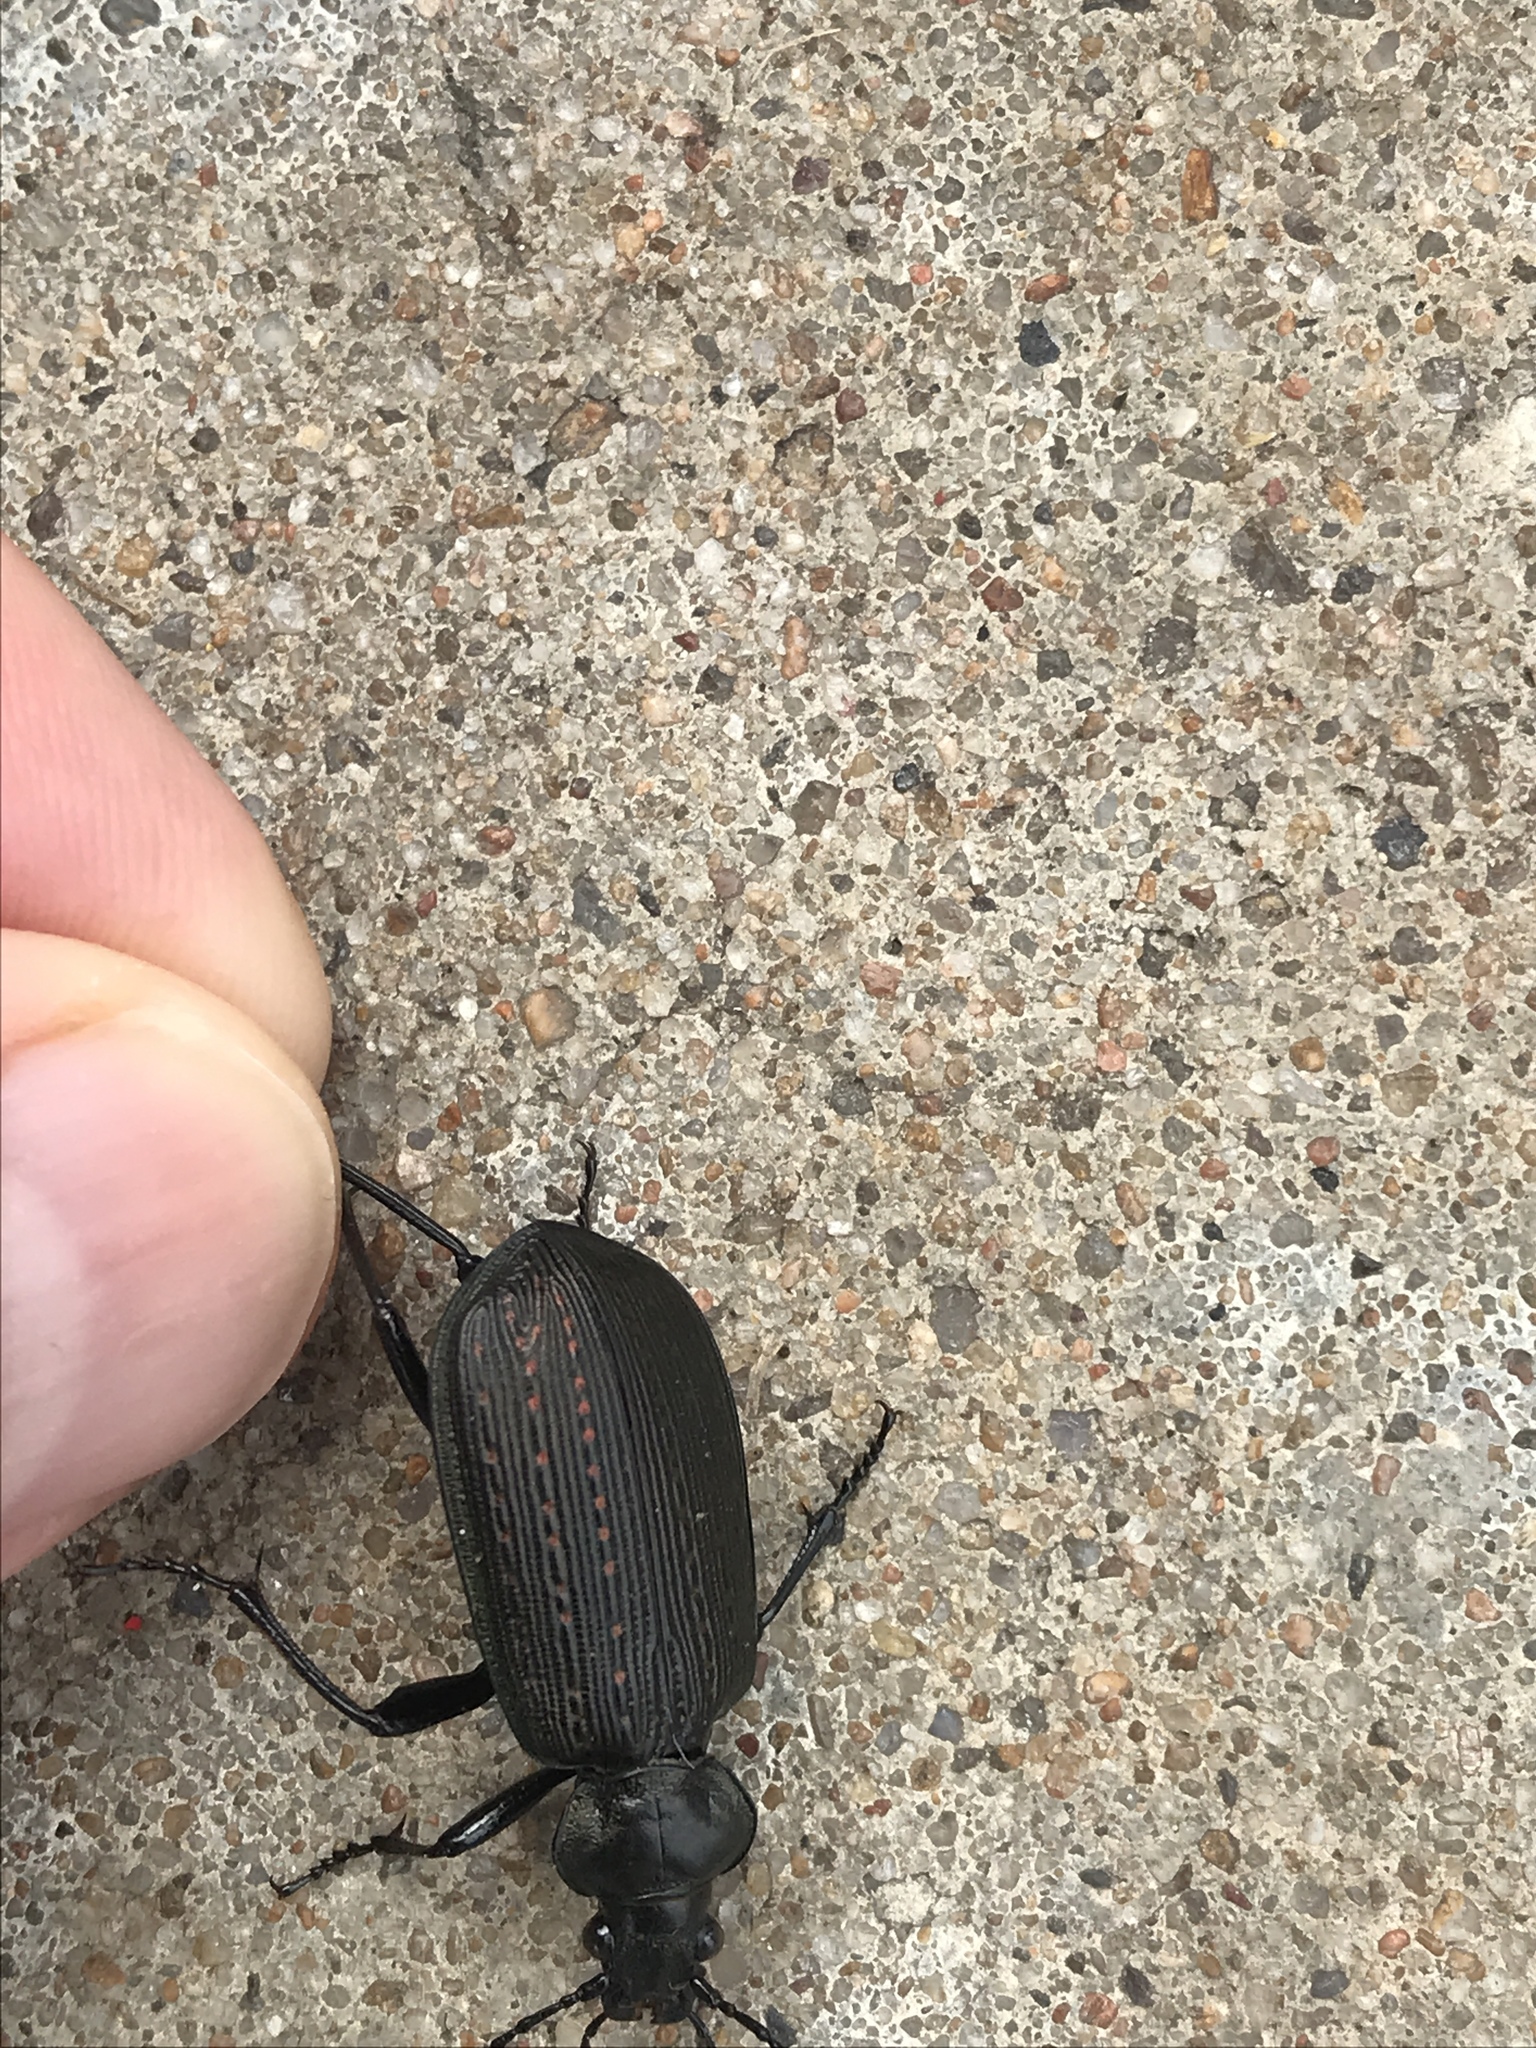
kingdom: Animalia
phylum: Arthropoda
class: Insecta
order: Coleoptera
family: Carabidae
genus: Calosoma
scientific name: Calosoma sayi
